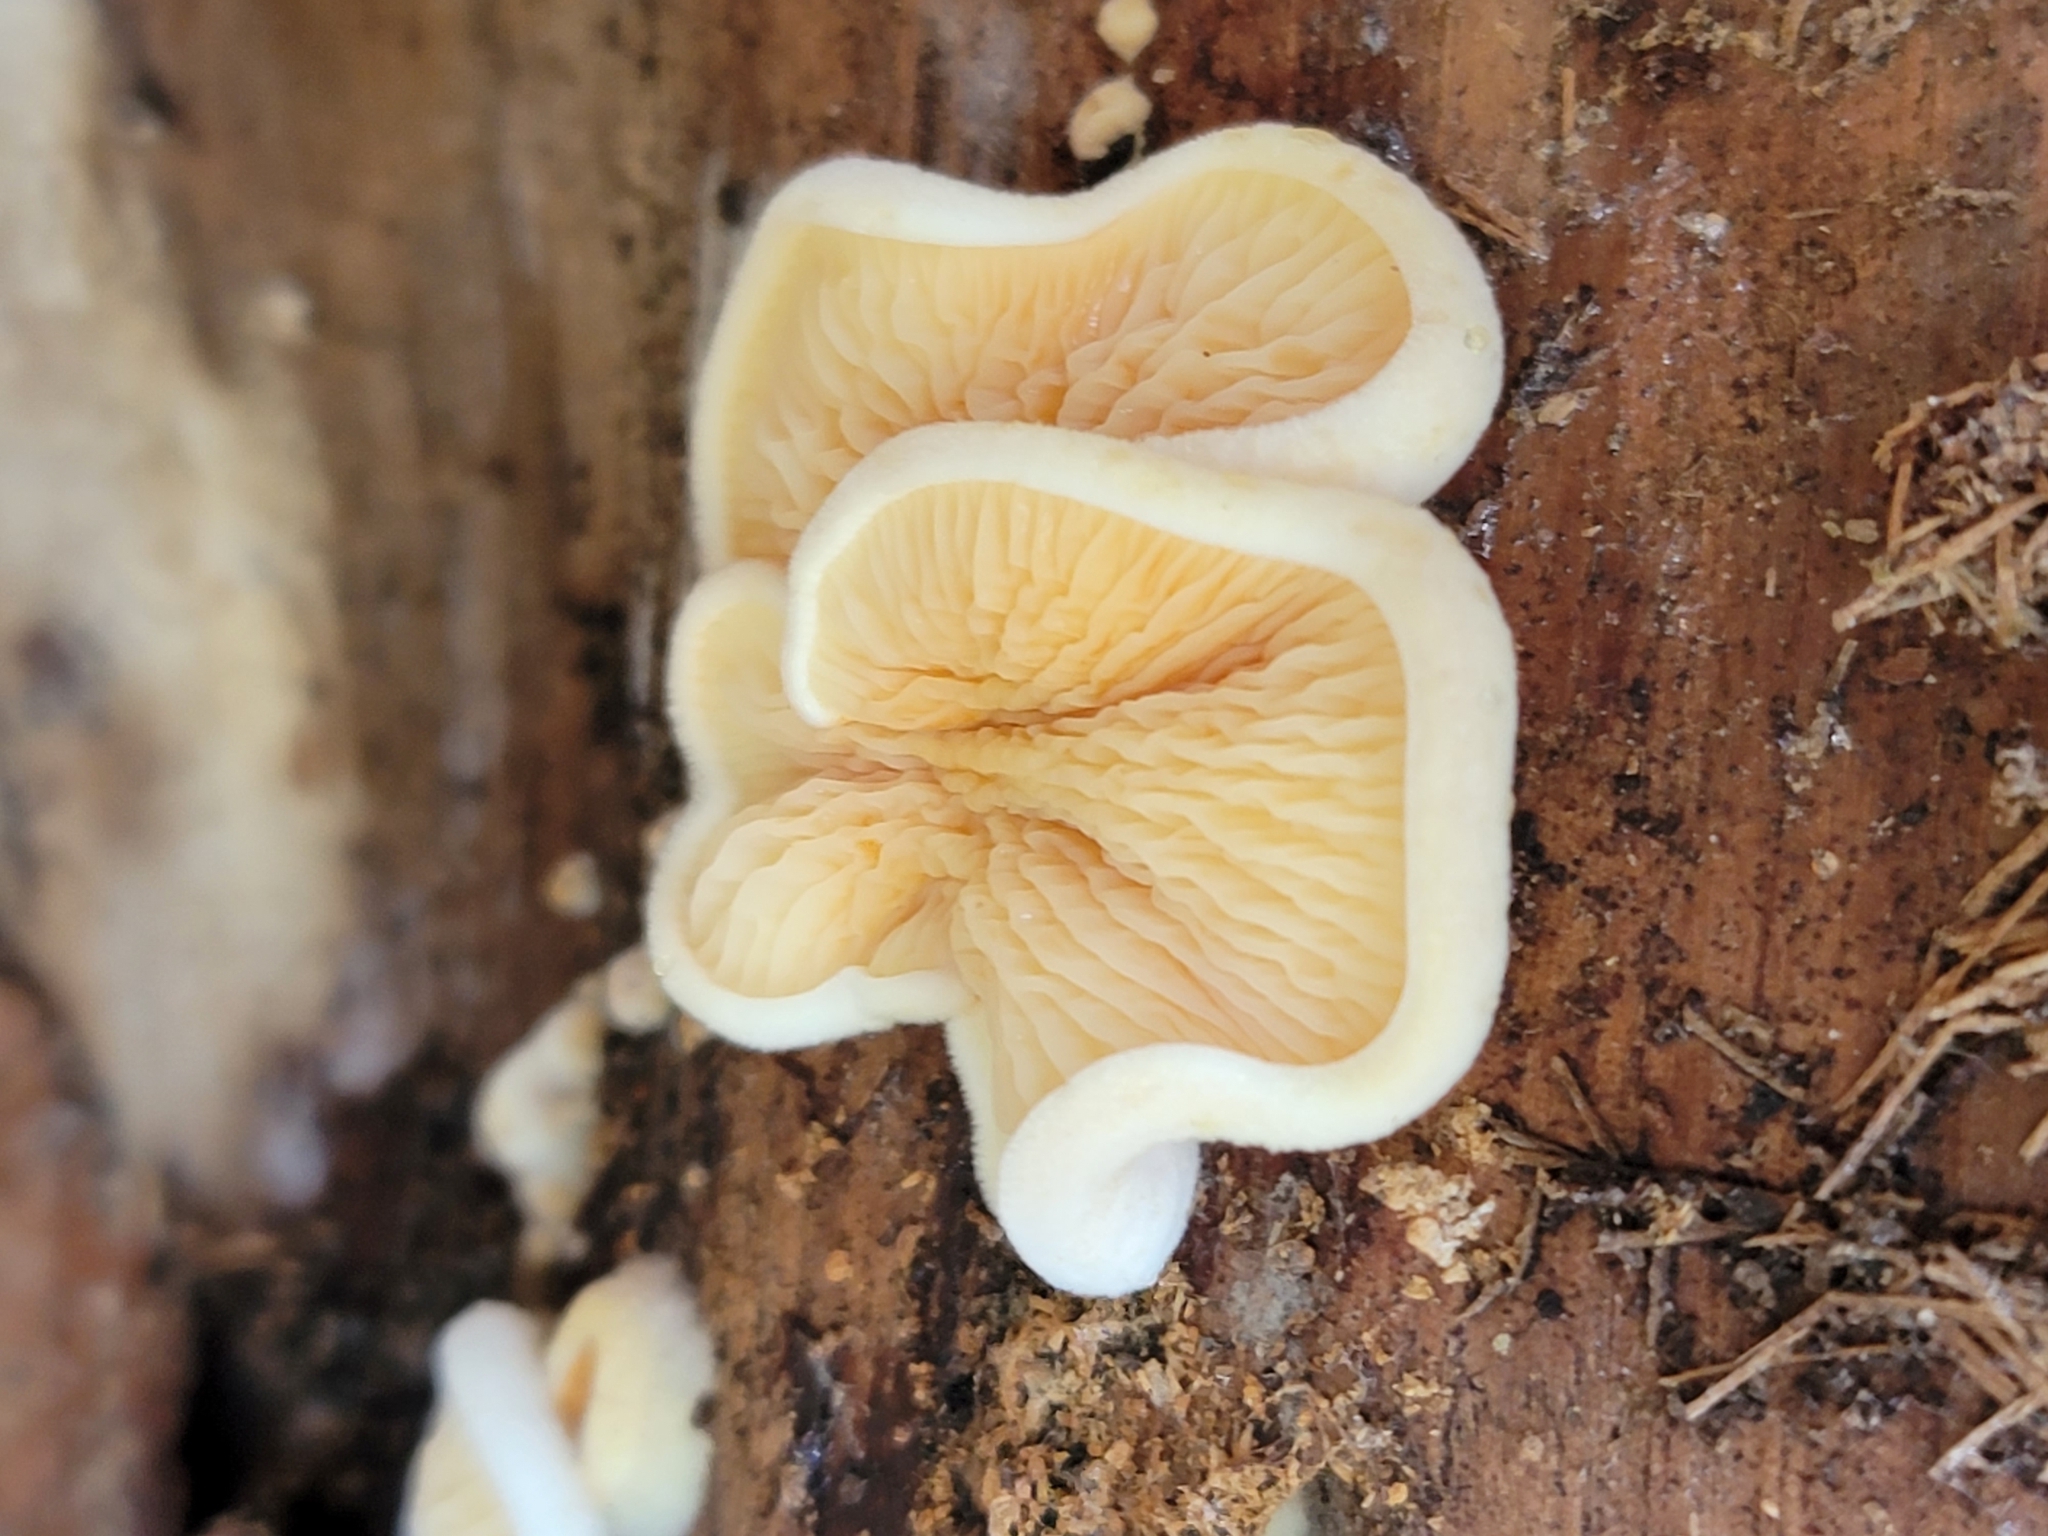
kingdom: Fungi
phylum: Basidiomycota
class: Agaricomycetes
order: Boletales
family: Tapinellaceae
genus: Tapinella
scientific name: Tapinella panuoides
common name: Oyster rollrim
